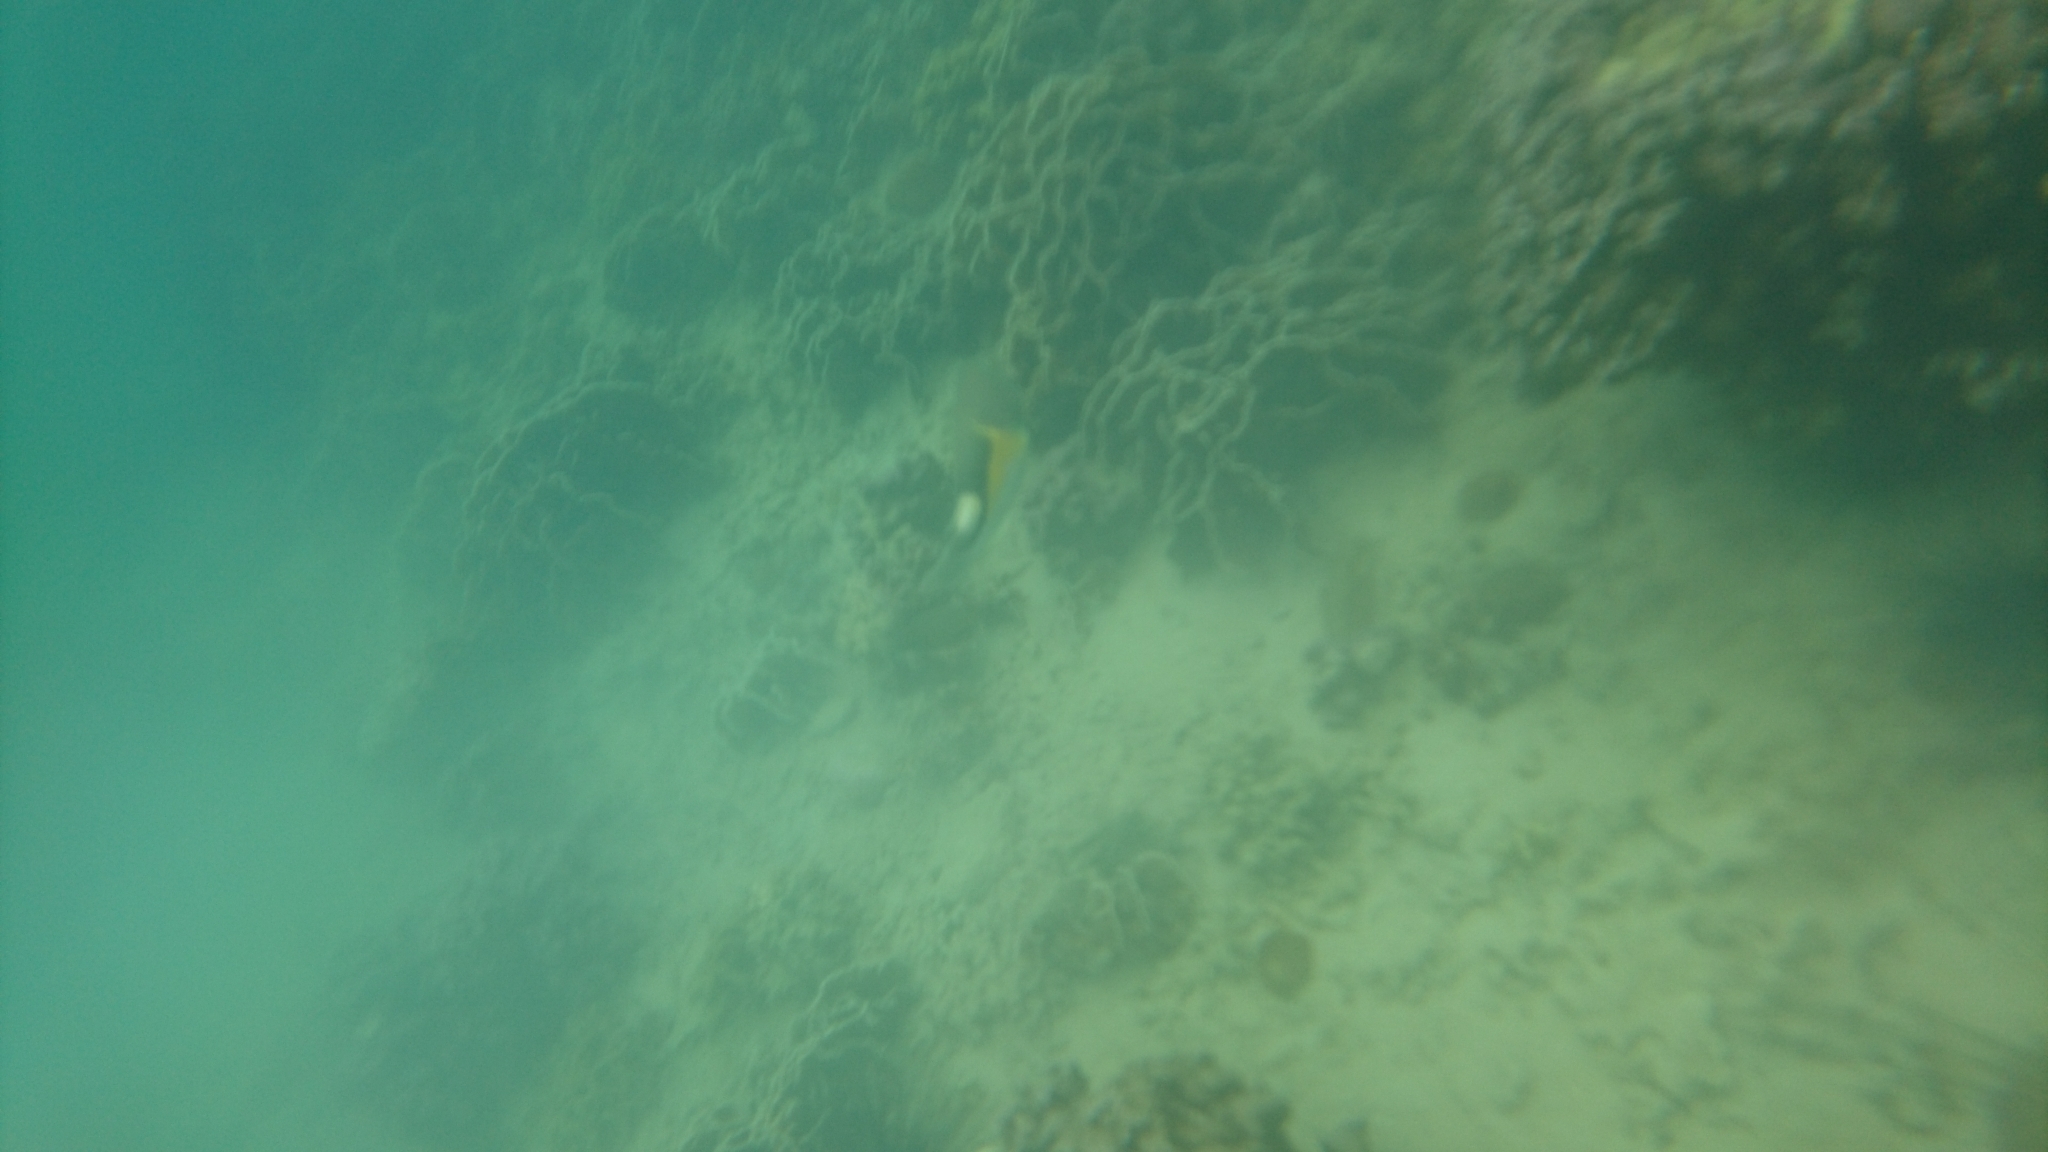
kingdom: Animalia
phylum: Chordata
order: Perciformes
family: Labridae
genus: Choerodon
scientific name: Choerodon anchorago
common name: Anchor tuskfish
